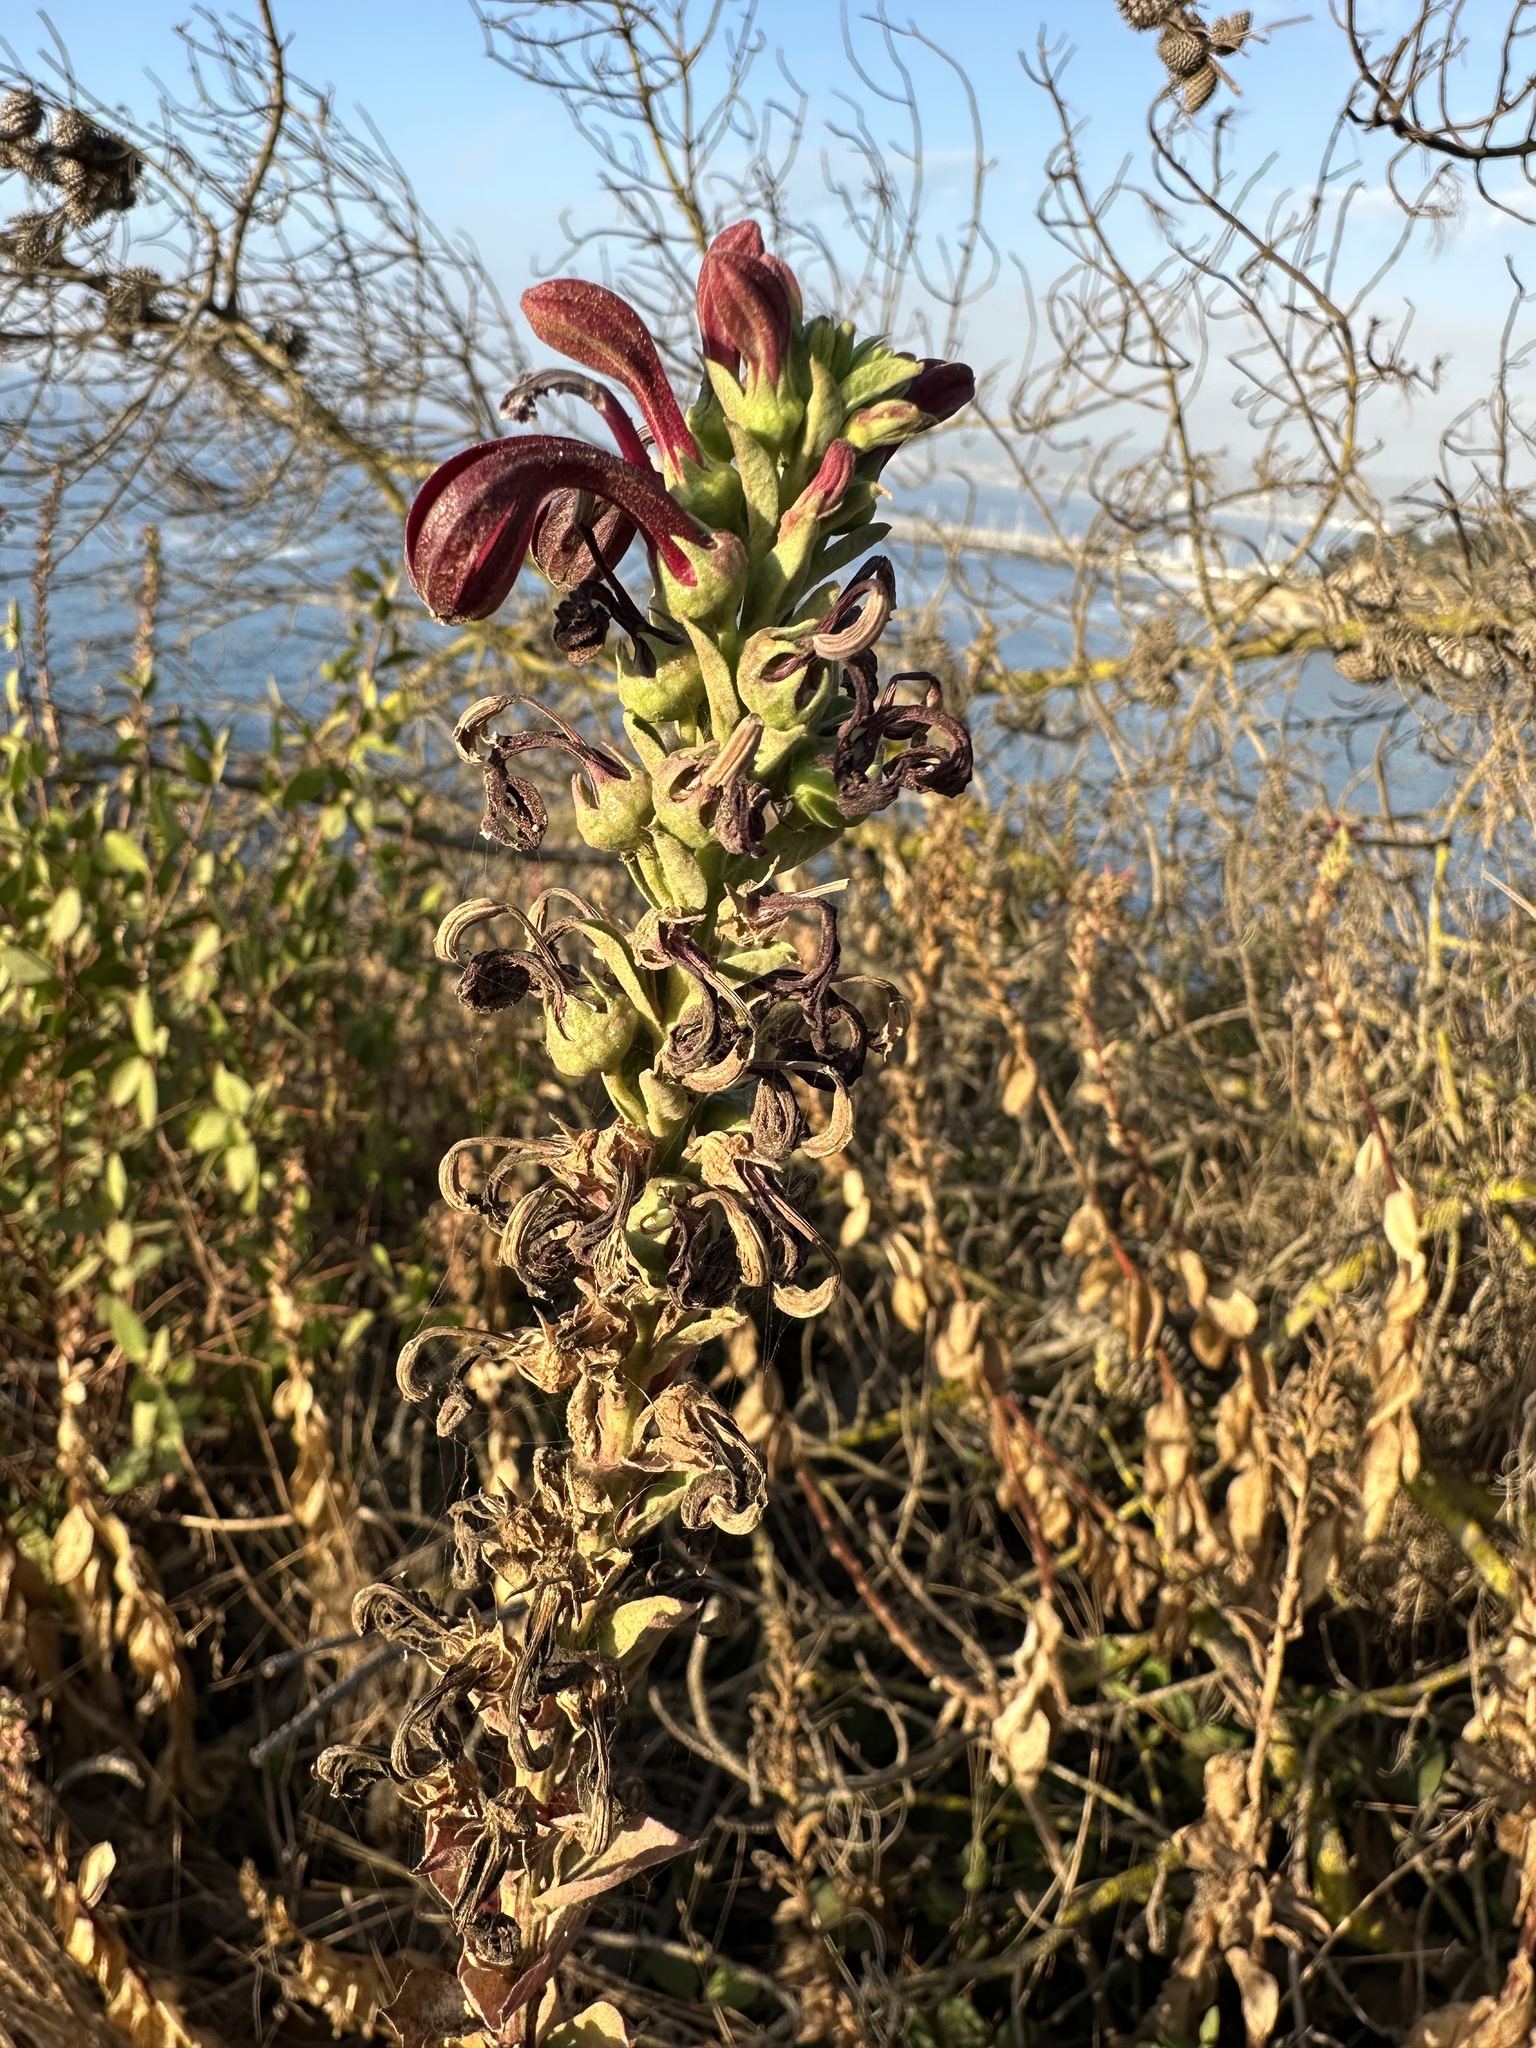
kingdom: Plantae
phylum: Tracheophyta
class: Magnoliopsida
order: Asterales
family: Campanulaceae
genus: Lobelia
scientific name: Lobelia polyphylla
